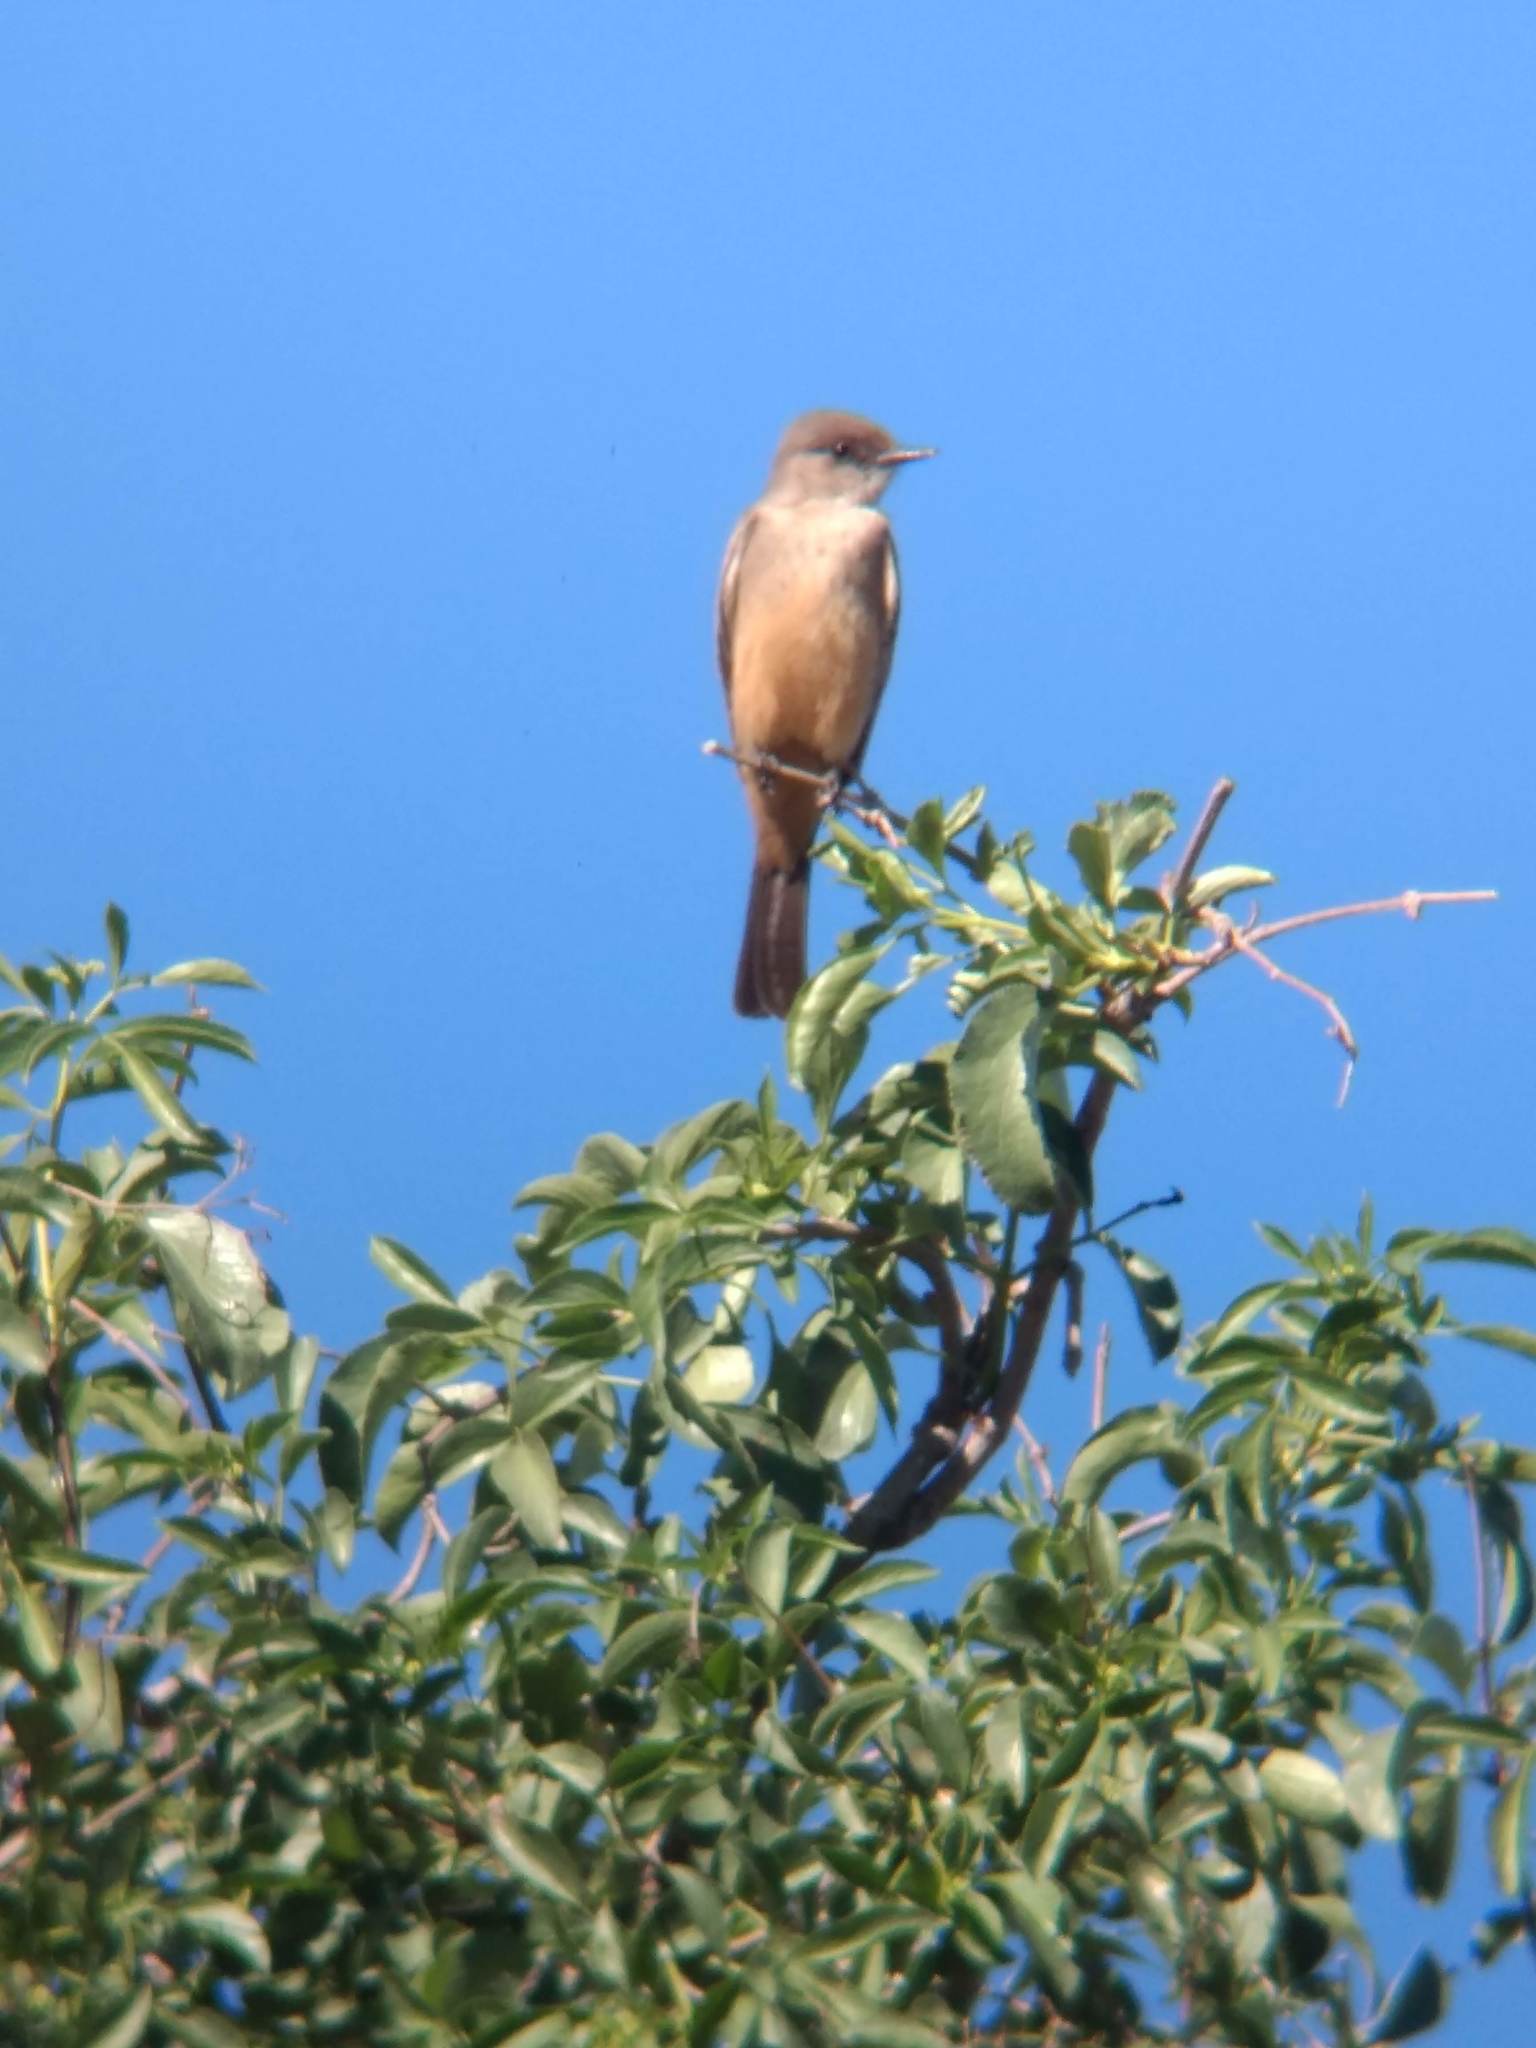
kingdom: Animalia
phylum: Chordata
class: Aves
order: Passeriformes
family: Tyrannidae
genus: Sayornis
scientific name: Sayornis saya
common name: Say's phoebe
